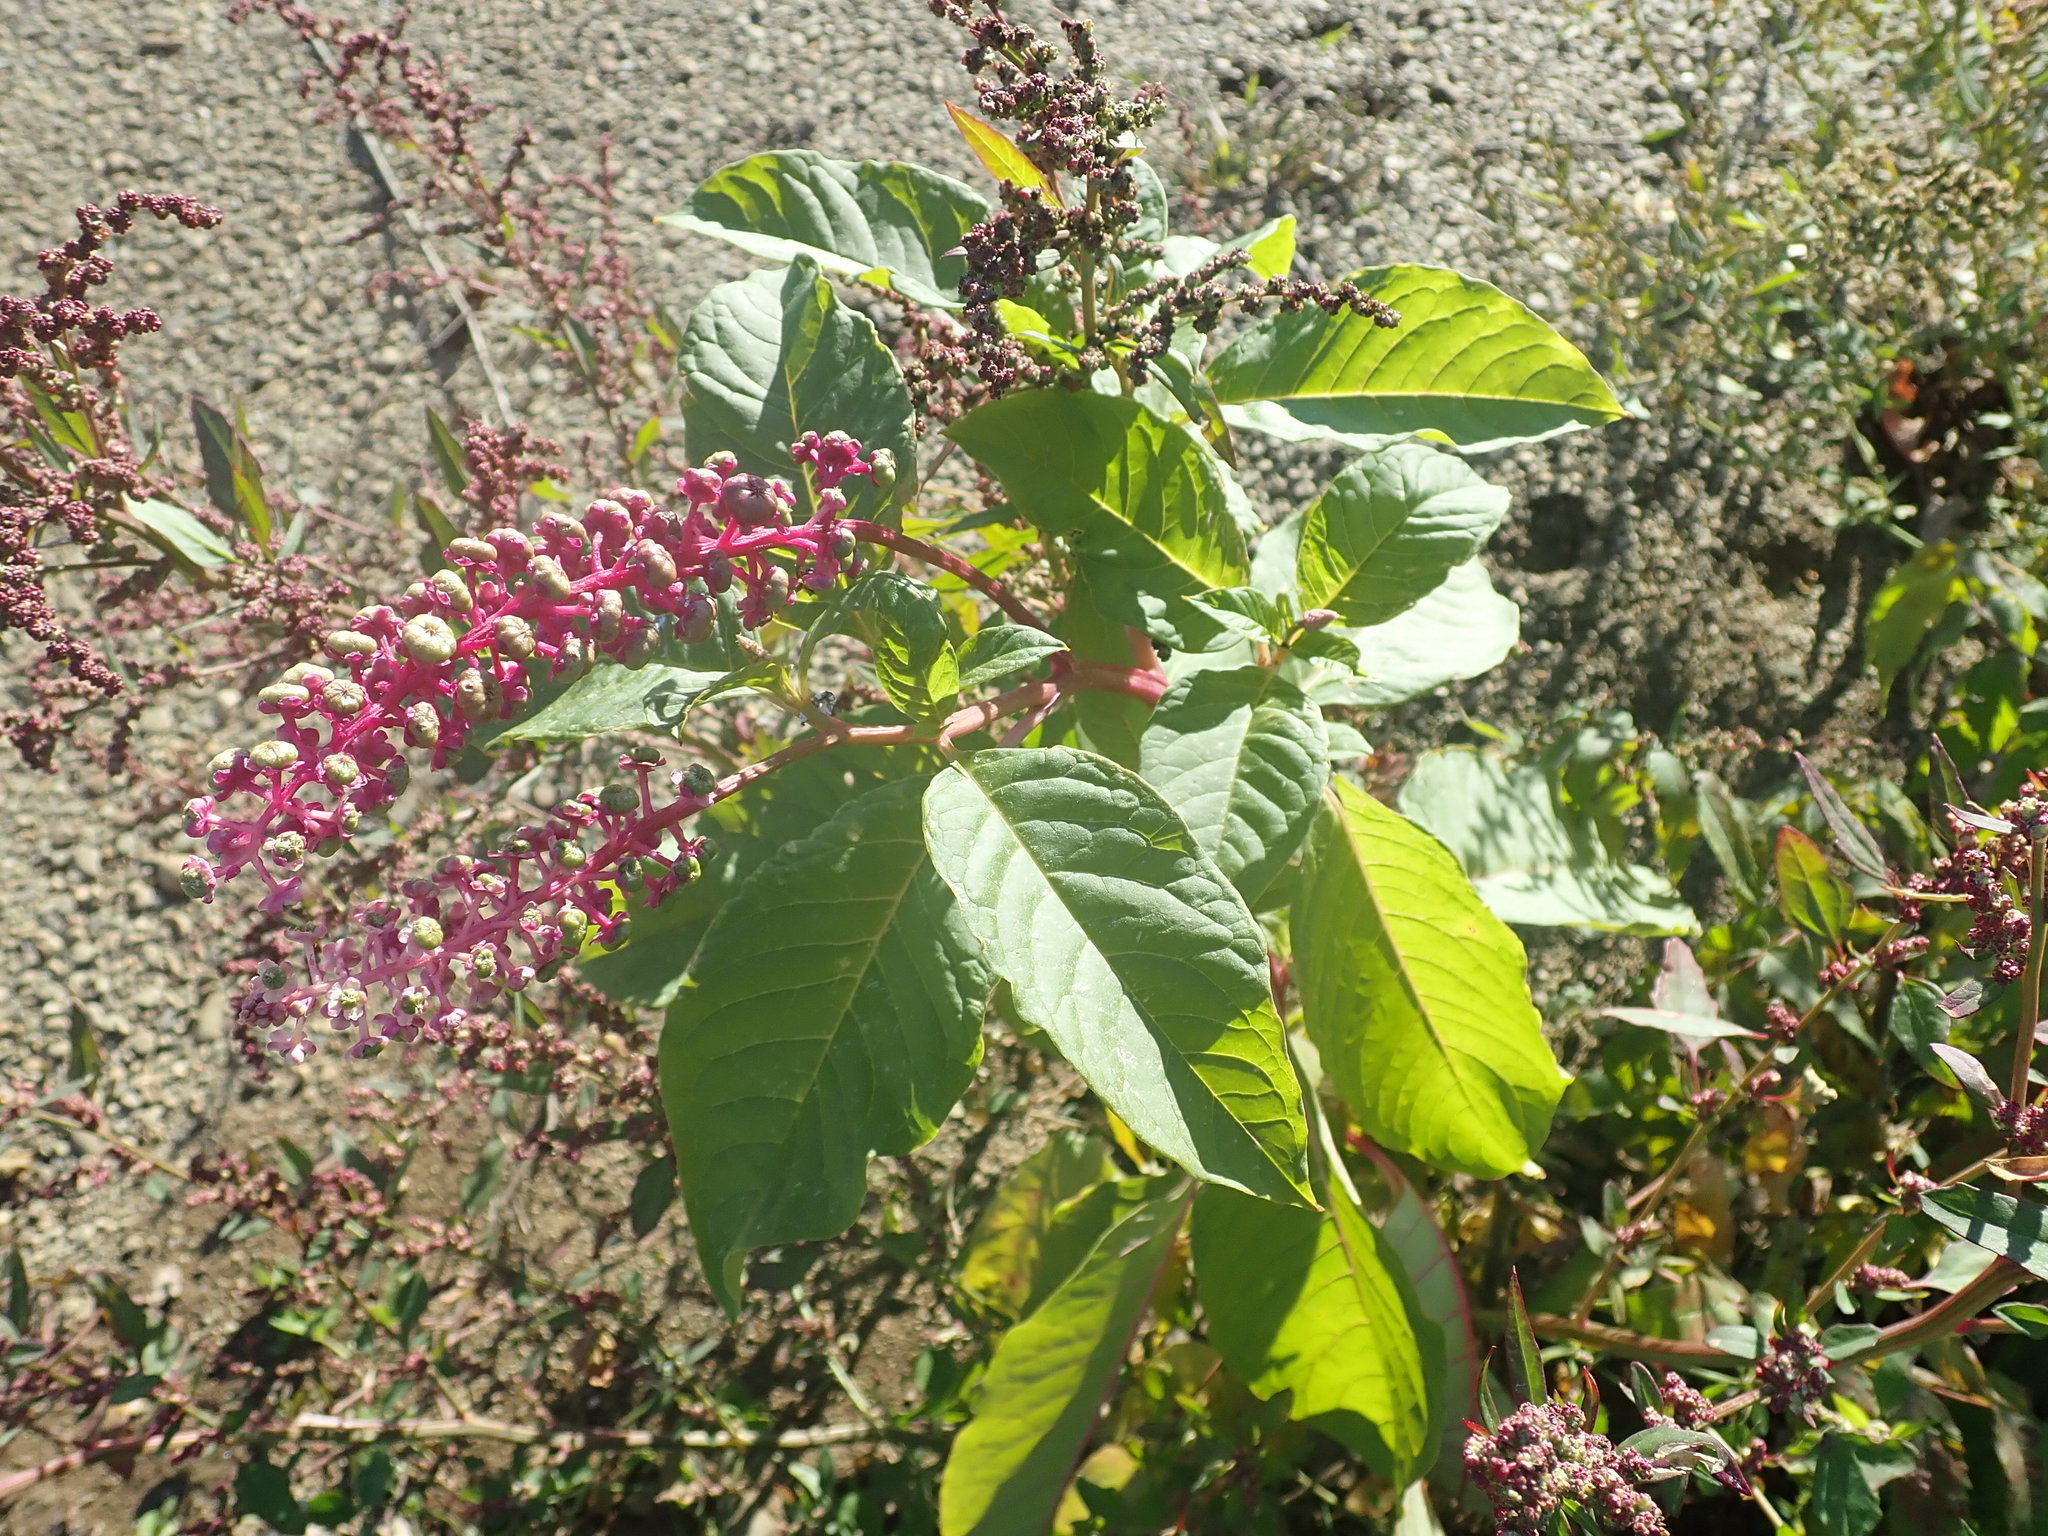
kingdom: Plantae
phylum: Tracheophyta
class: Magnoliopsida
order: Caryophyllales
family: Phytolaccaceae
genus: Phytolacca
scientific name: Phytolacca americana
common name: American pokeweed
